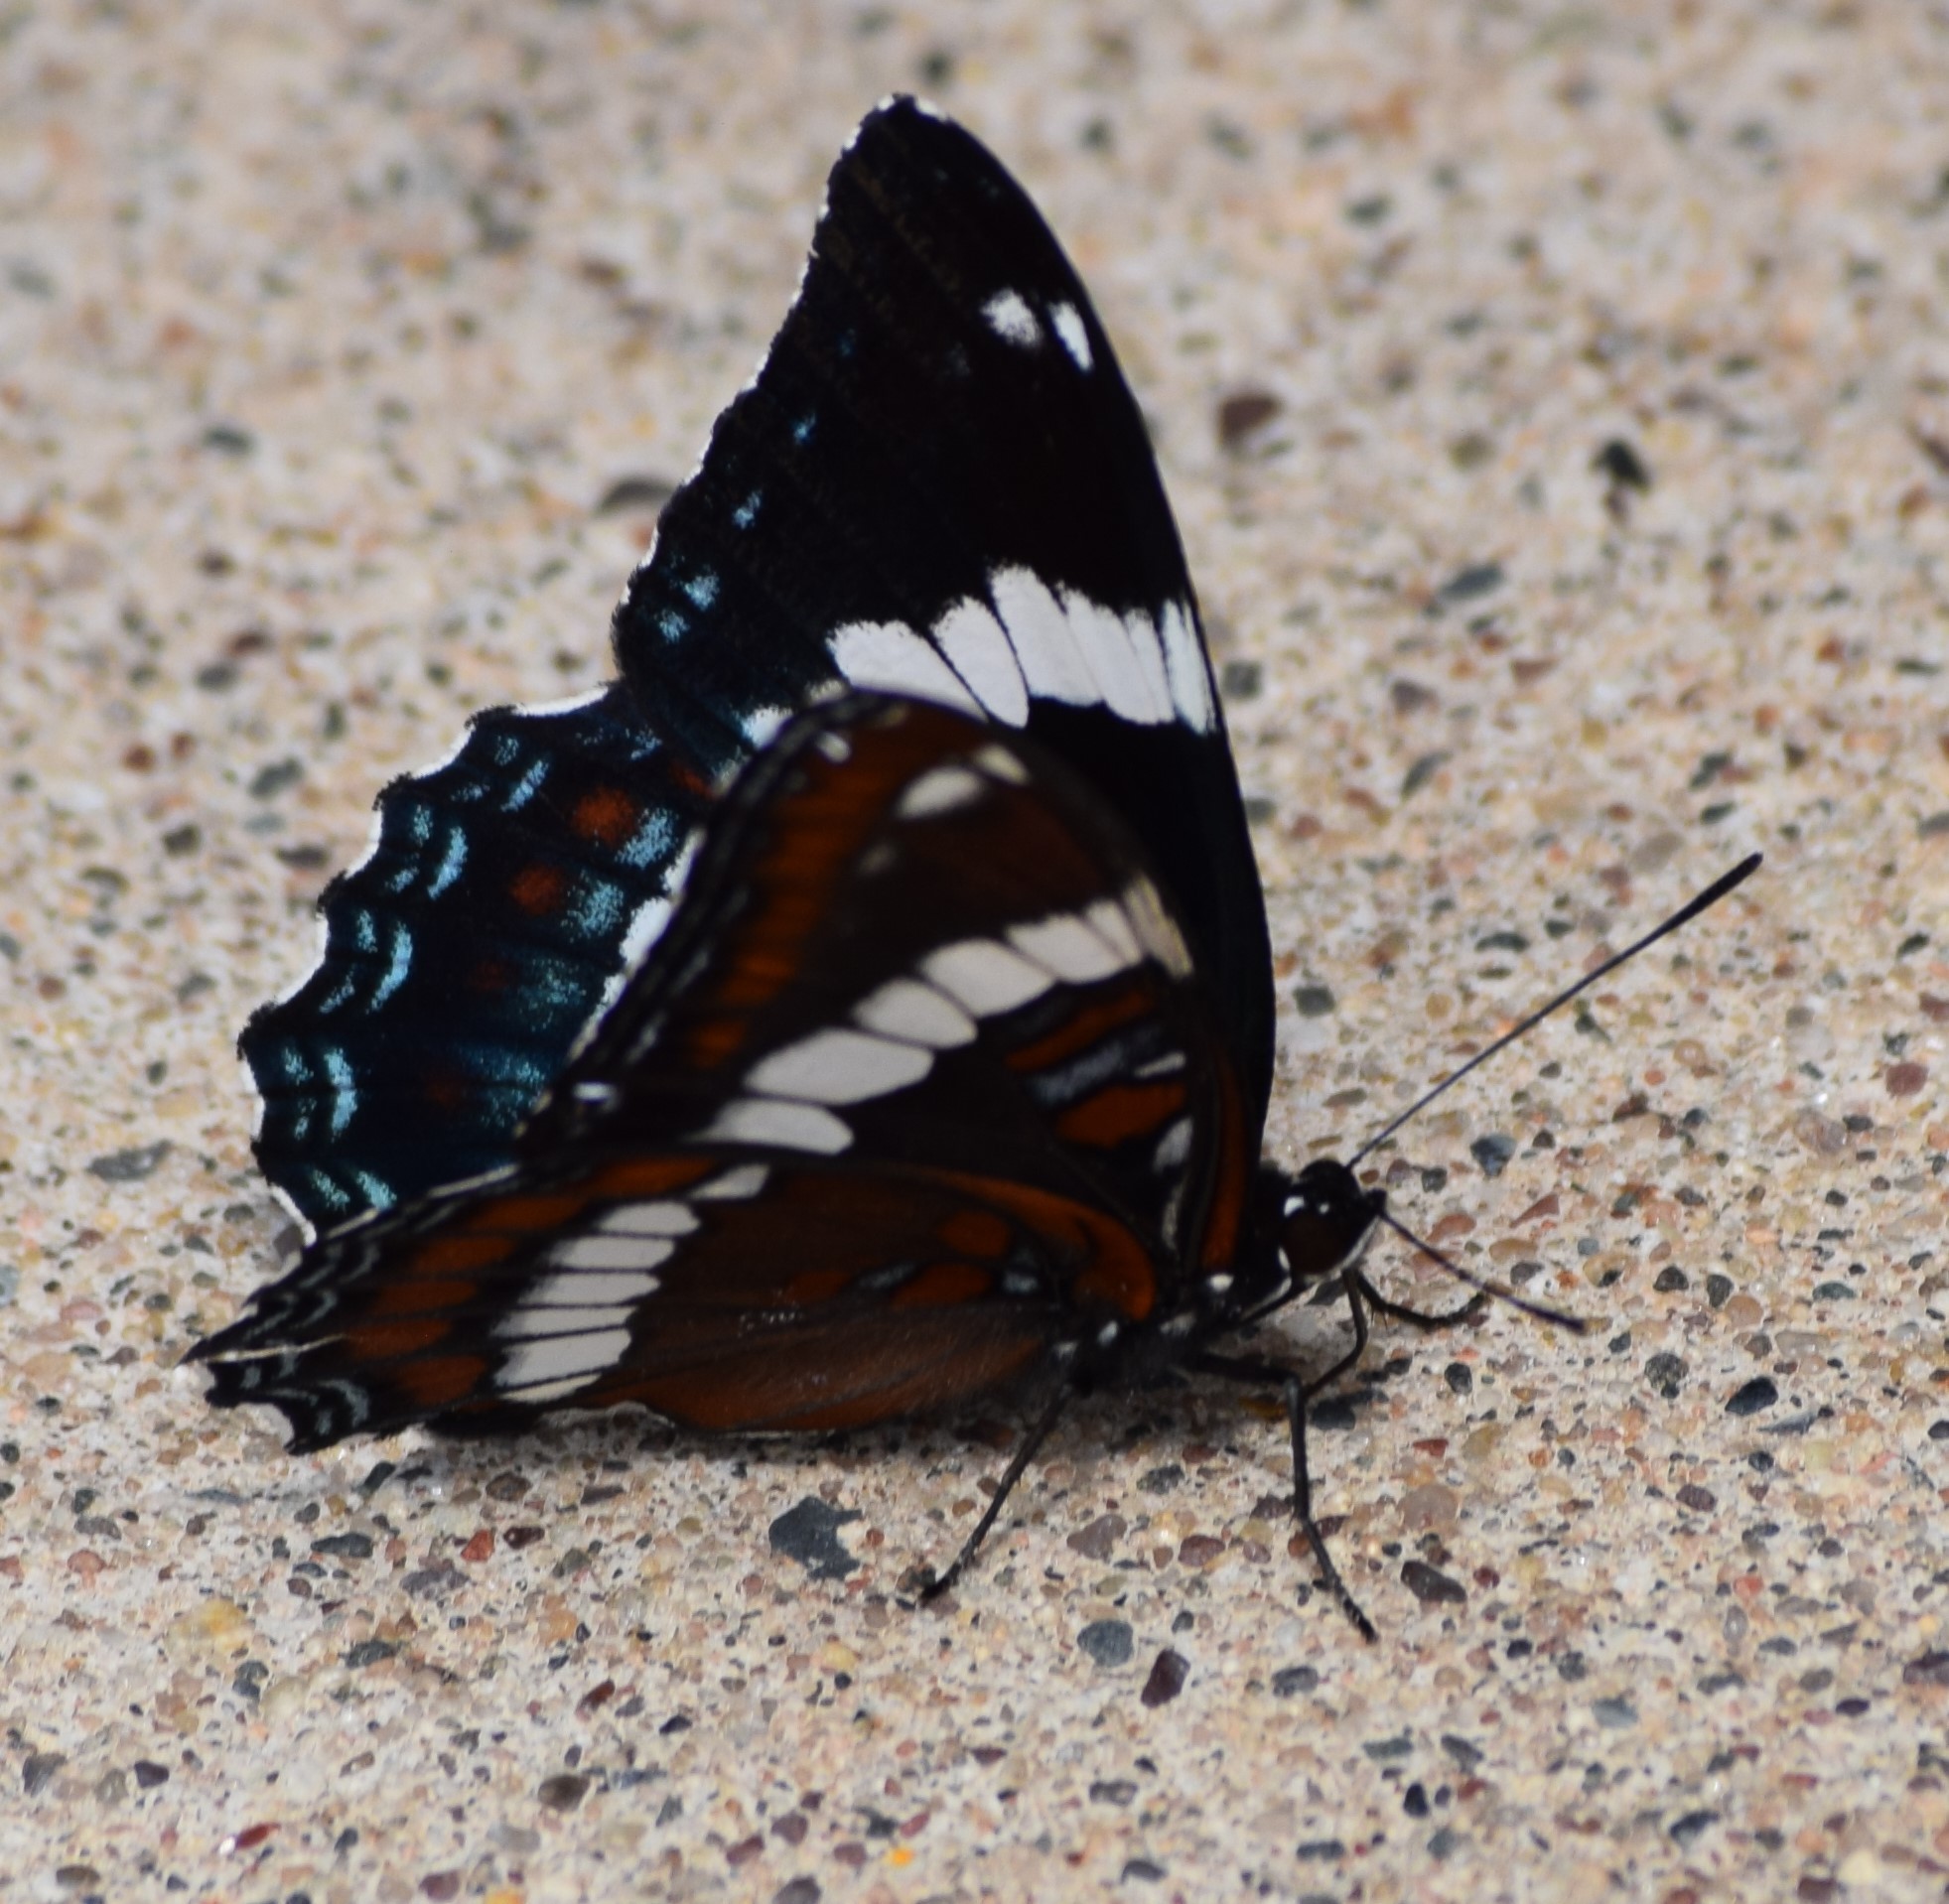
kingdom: Animalia
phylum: Arthropoda
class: Insecta
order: Lepidoptera
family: Nymphalidae
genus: Limenitis
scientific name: Limenitis arthemis
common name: Red-spotted admiral
